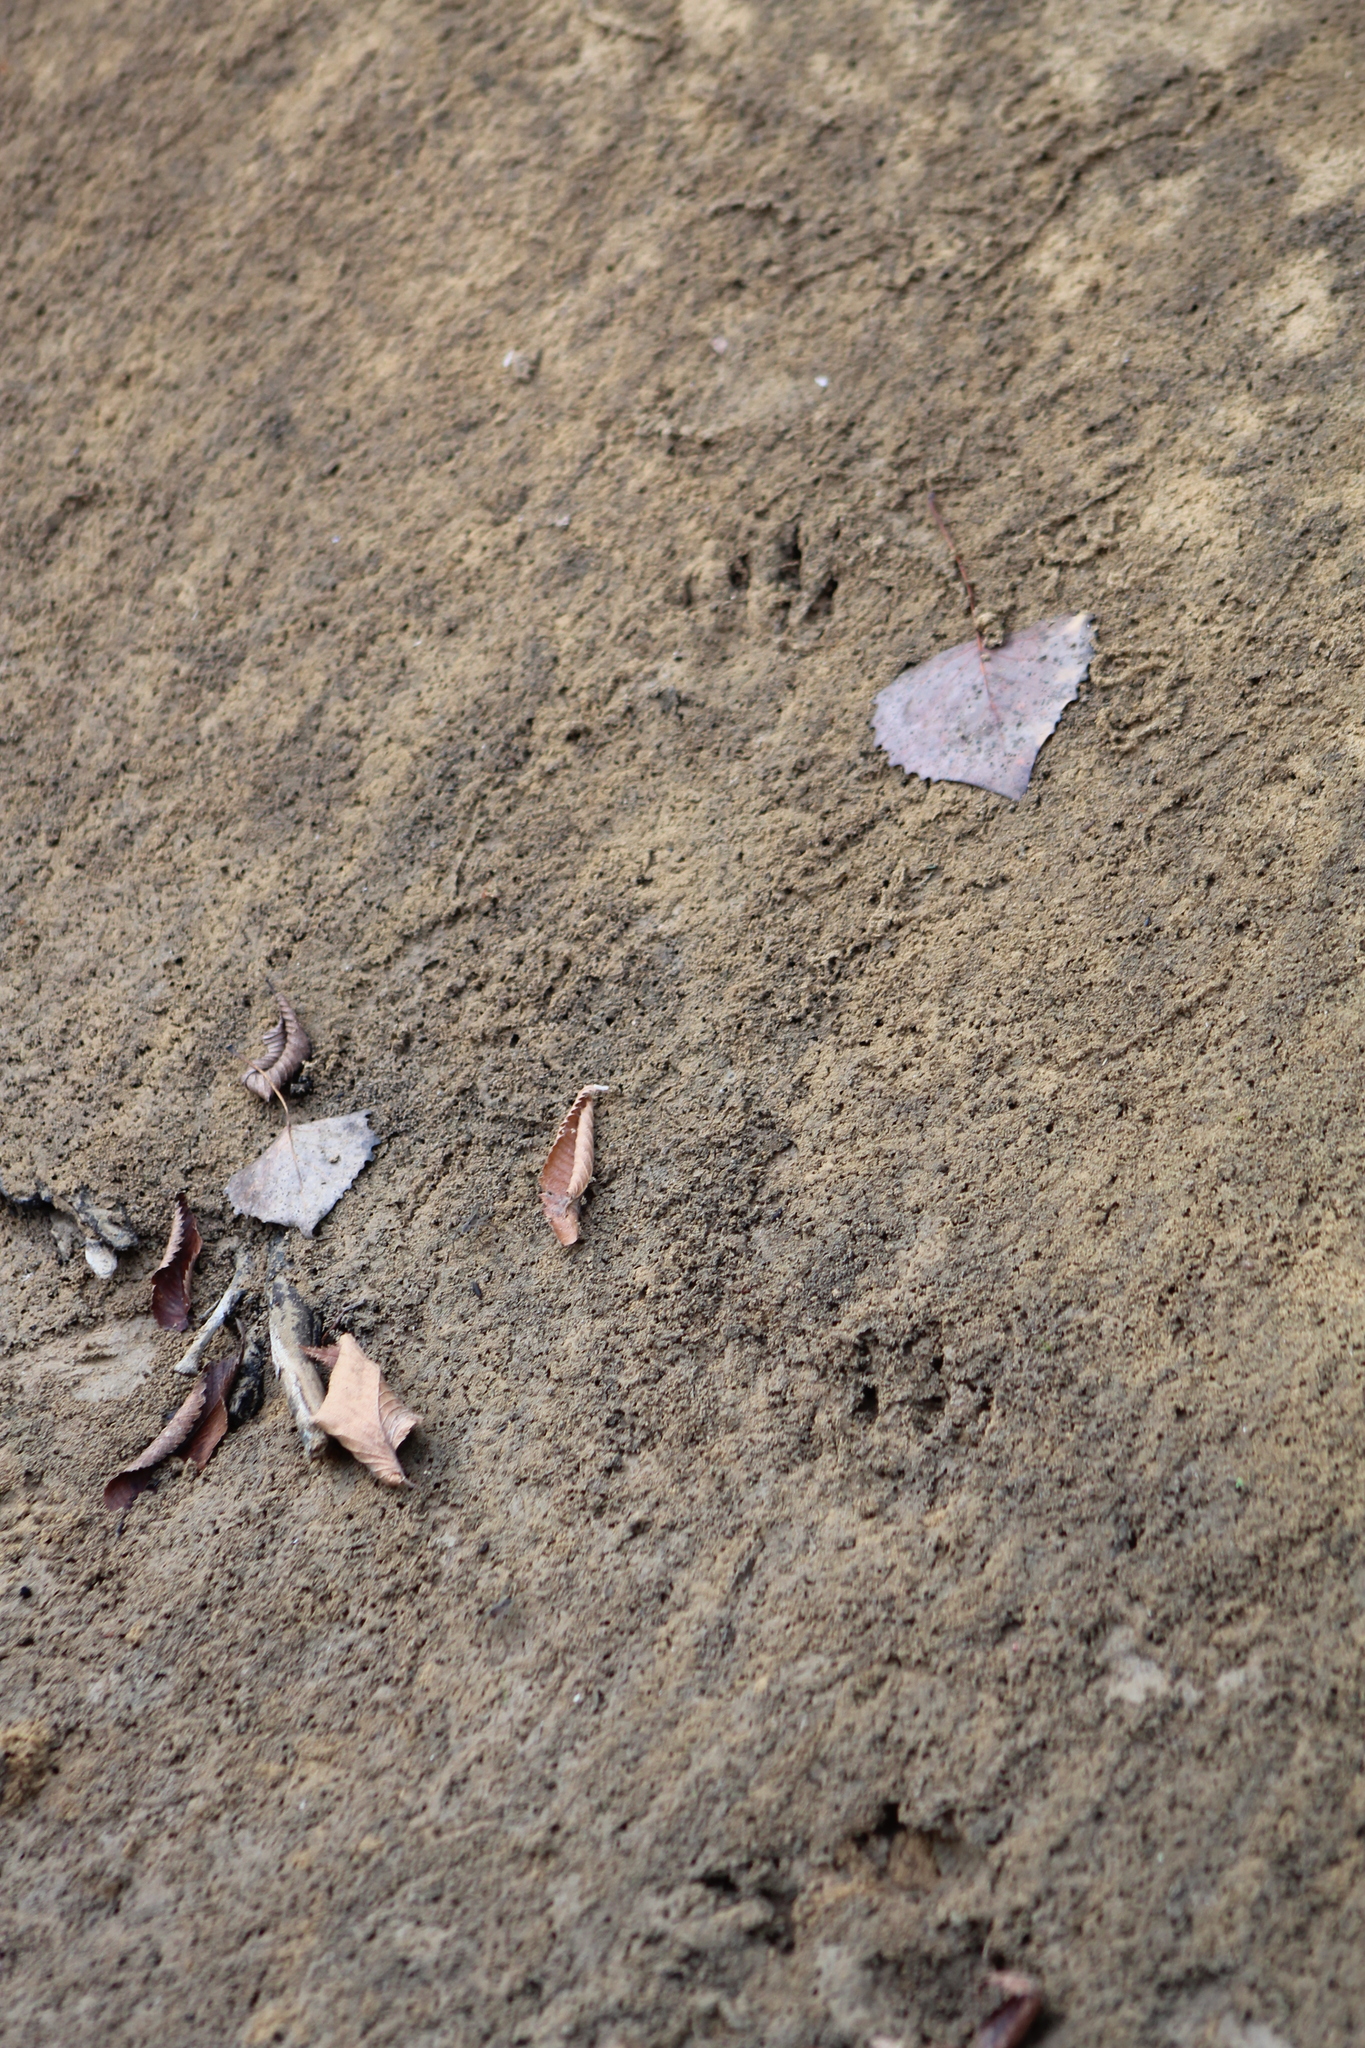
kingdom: Animalia
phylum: Chordata
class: Mammalia
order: Carnivora
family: Procyonidae
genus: Procyon
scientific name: Procyon lotor
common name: Raccoon
